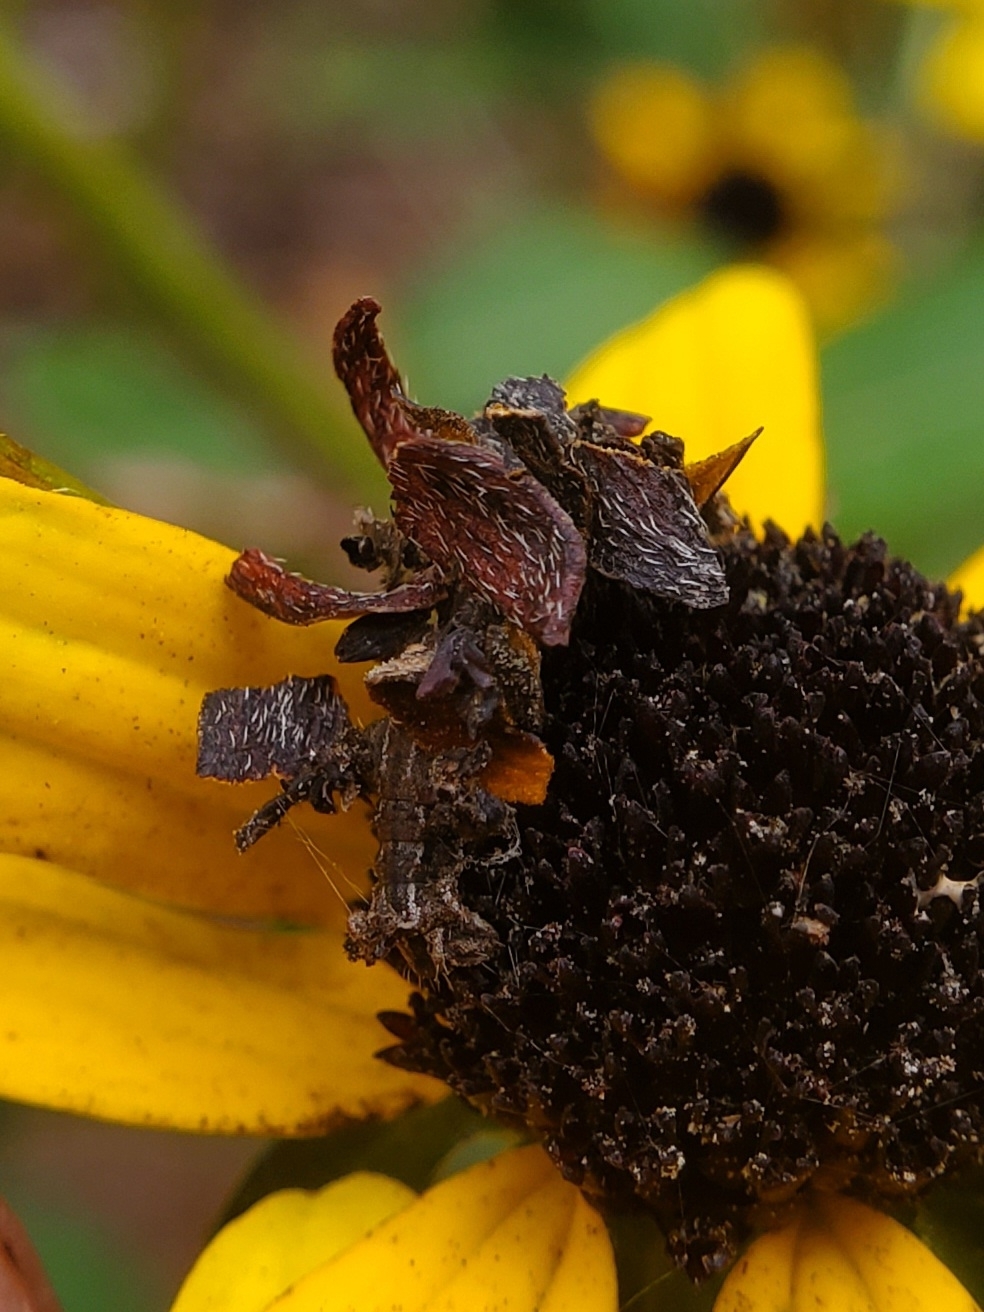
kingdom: Animalia
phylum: Arthropoda
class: Insecta
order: Lepidoptera
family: Geometridae
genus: Synchlora
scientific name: Synchlora aerata
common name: Wavy-lined emerald
